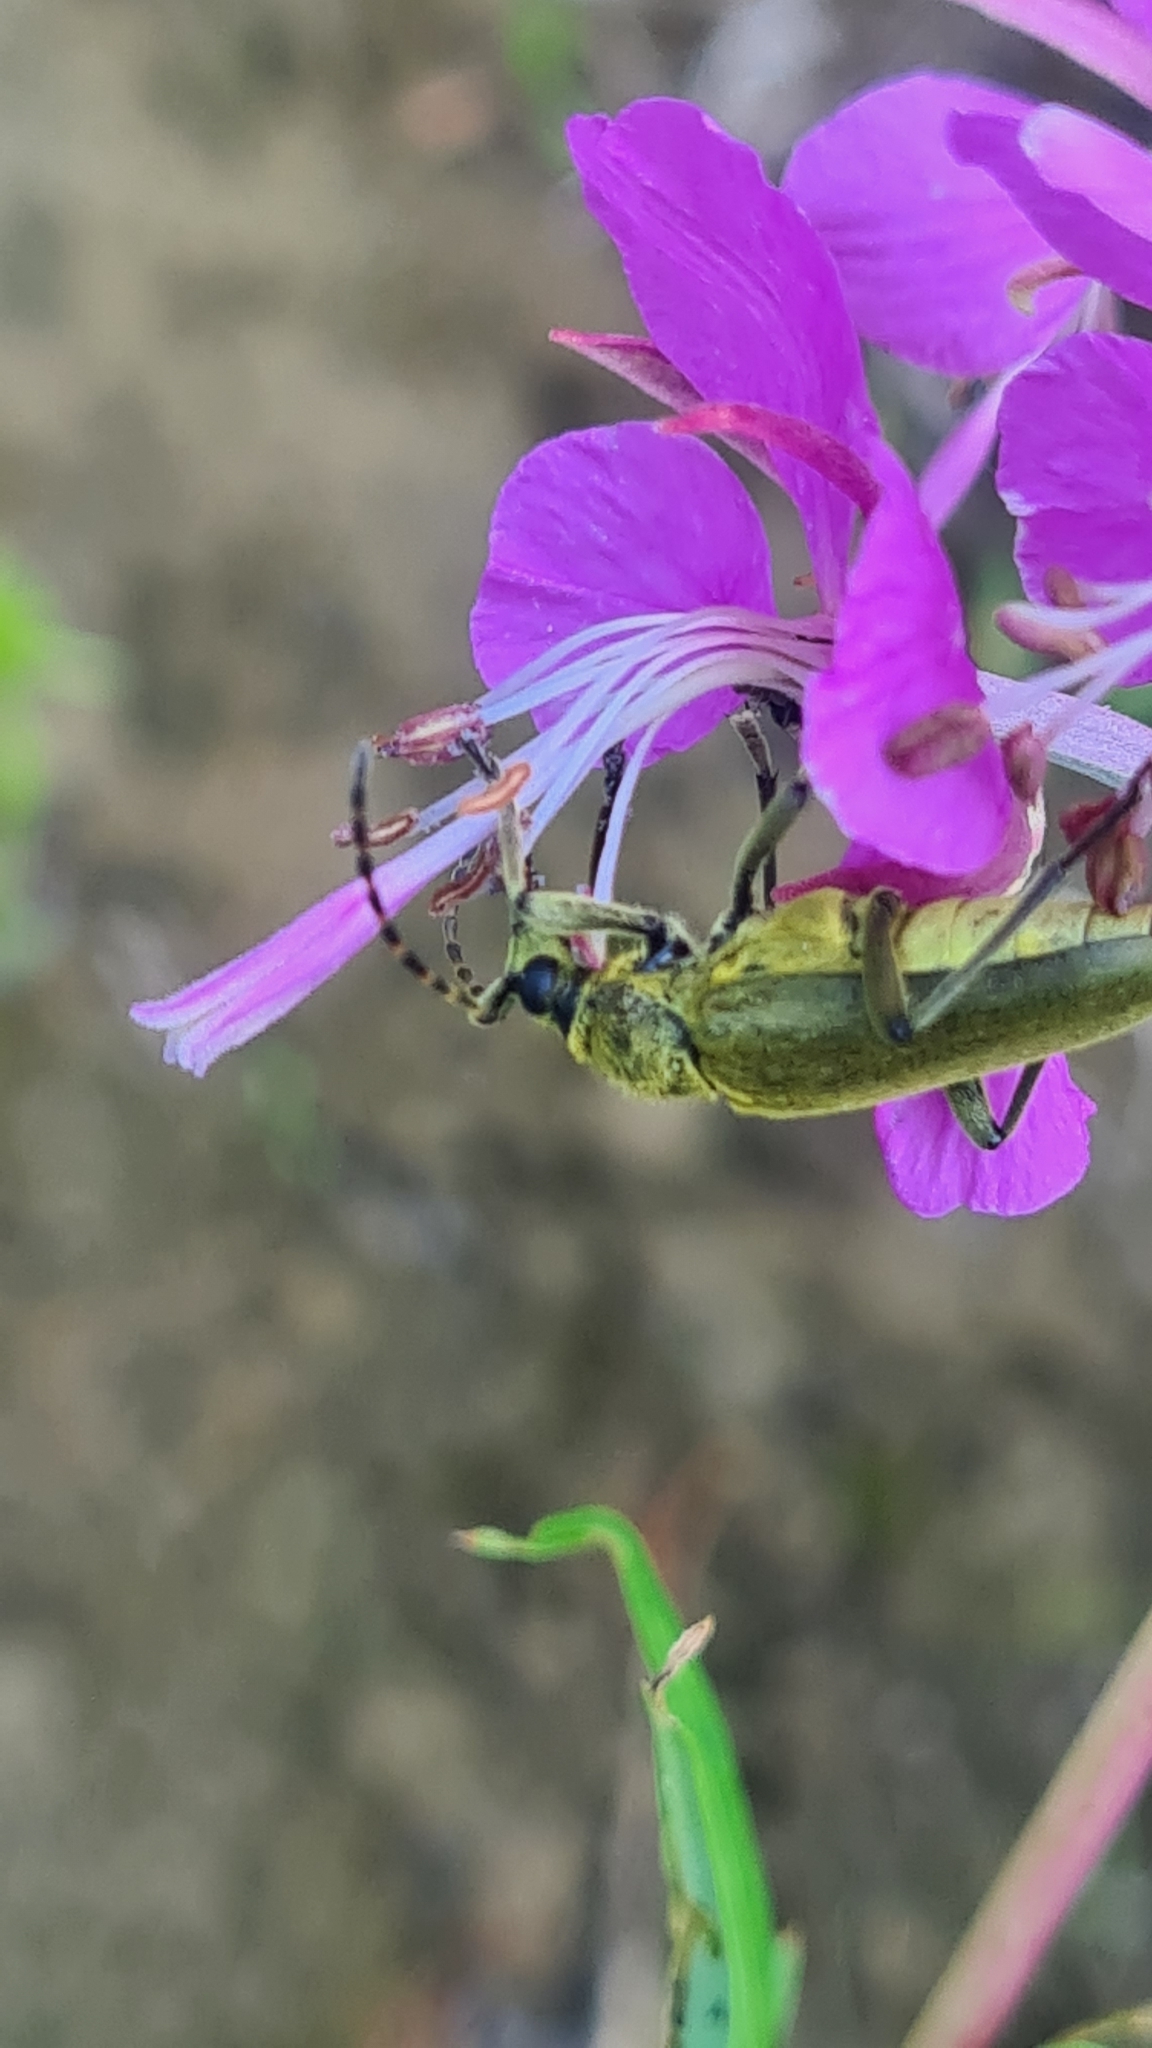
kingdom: Animalia
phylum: Arthropoda
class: Insecta
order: Coleoptera
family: Cerambycidae
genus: Lepturobosca
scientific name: Lepturobosca virens
